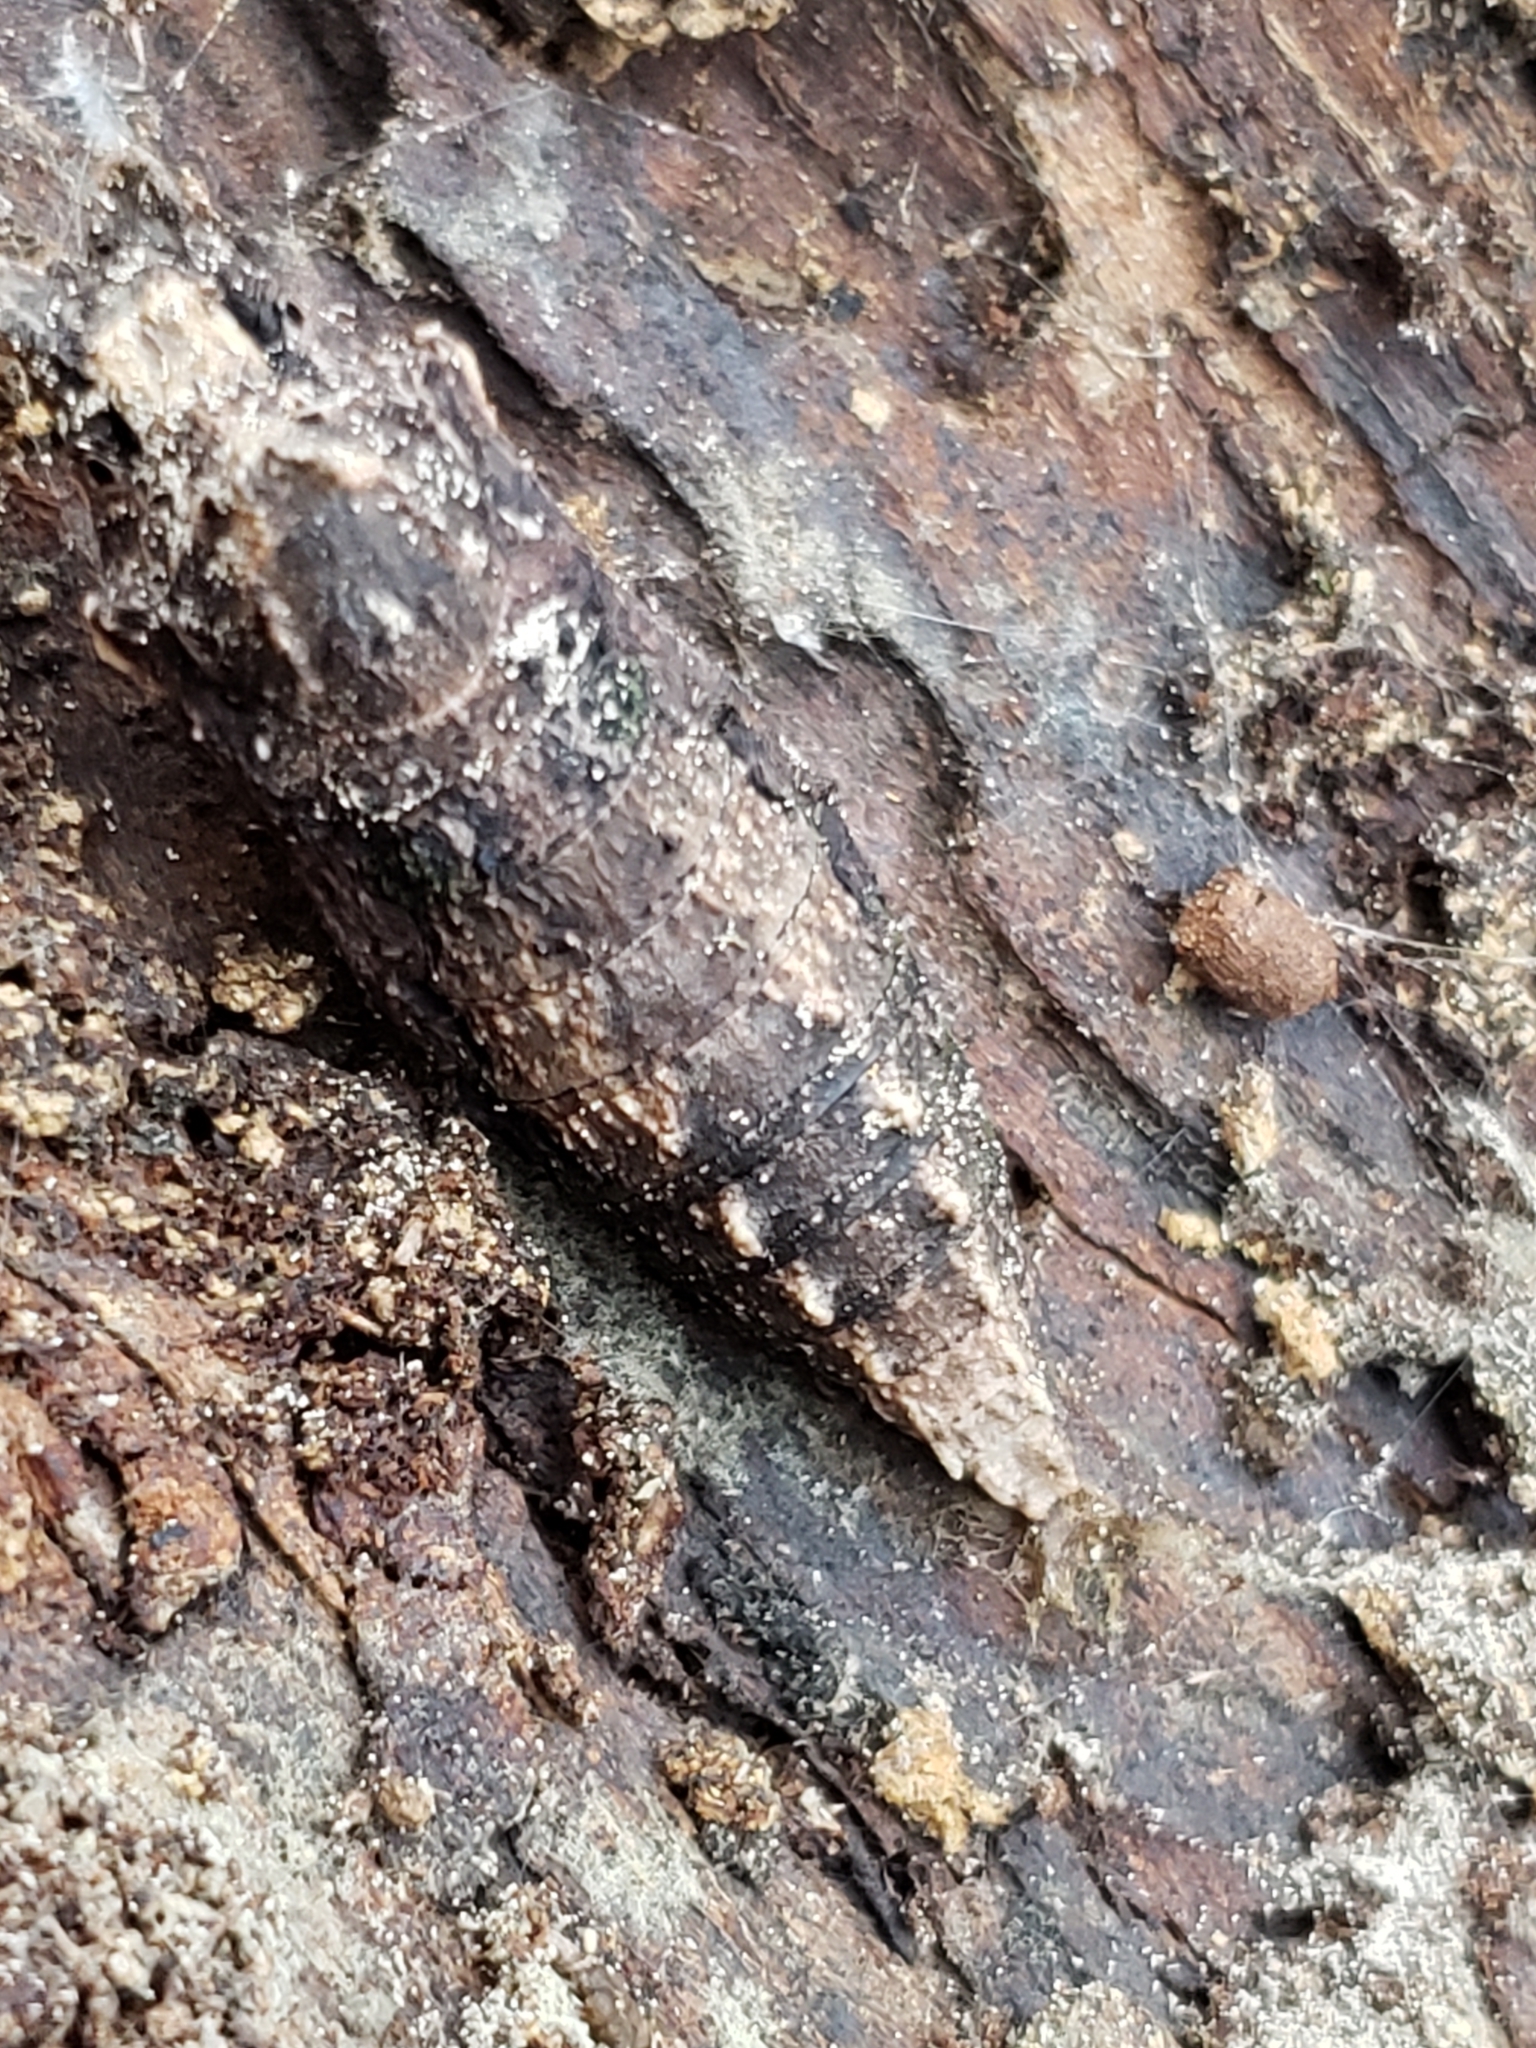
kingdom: Animalia
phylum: Arthropoda
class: Insecta
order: Lepidoptera
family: Papilionidae
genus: Papilio
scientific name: Papilio glaucus
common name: Tiger swallowtail
